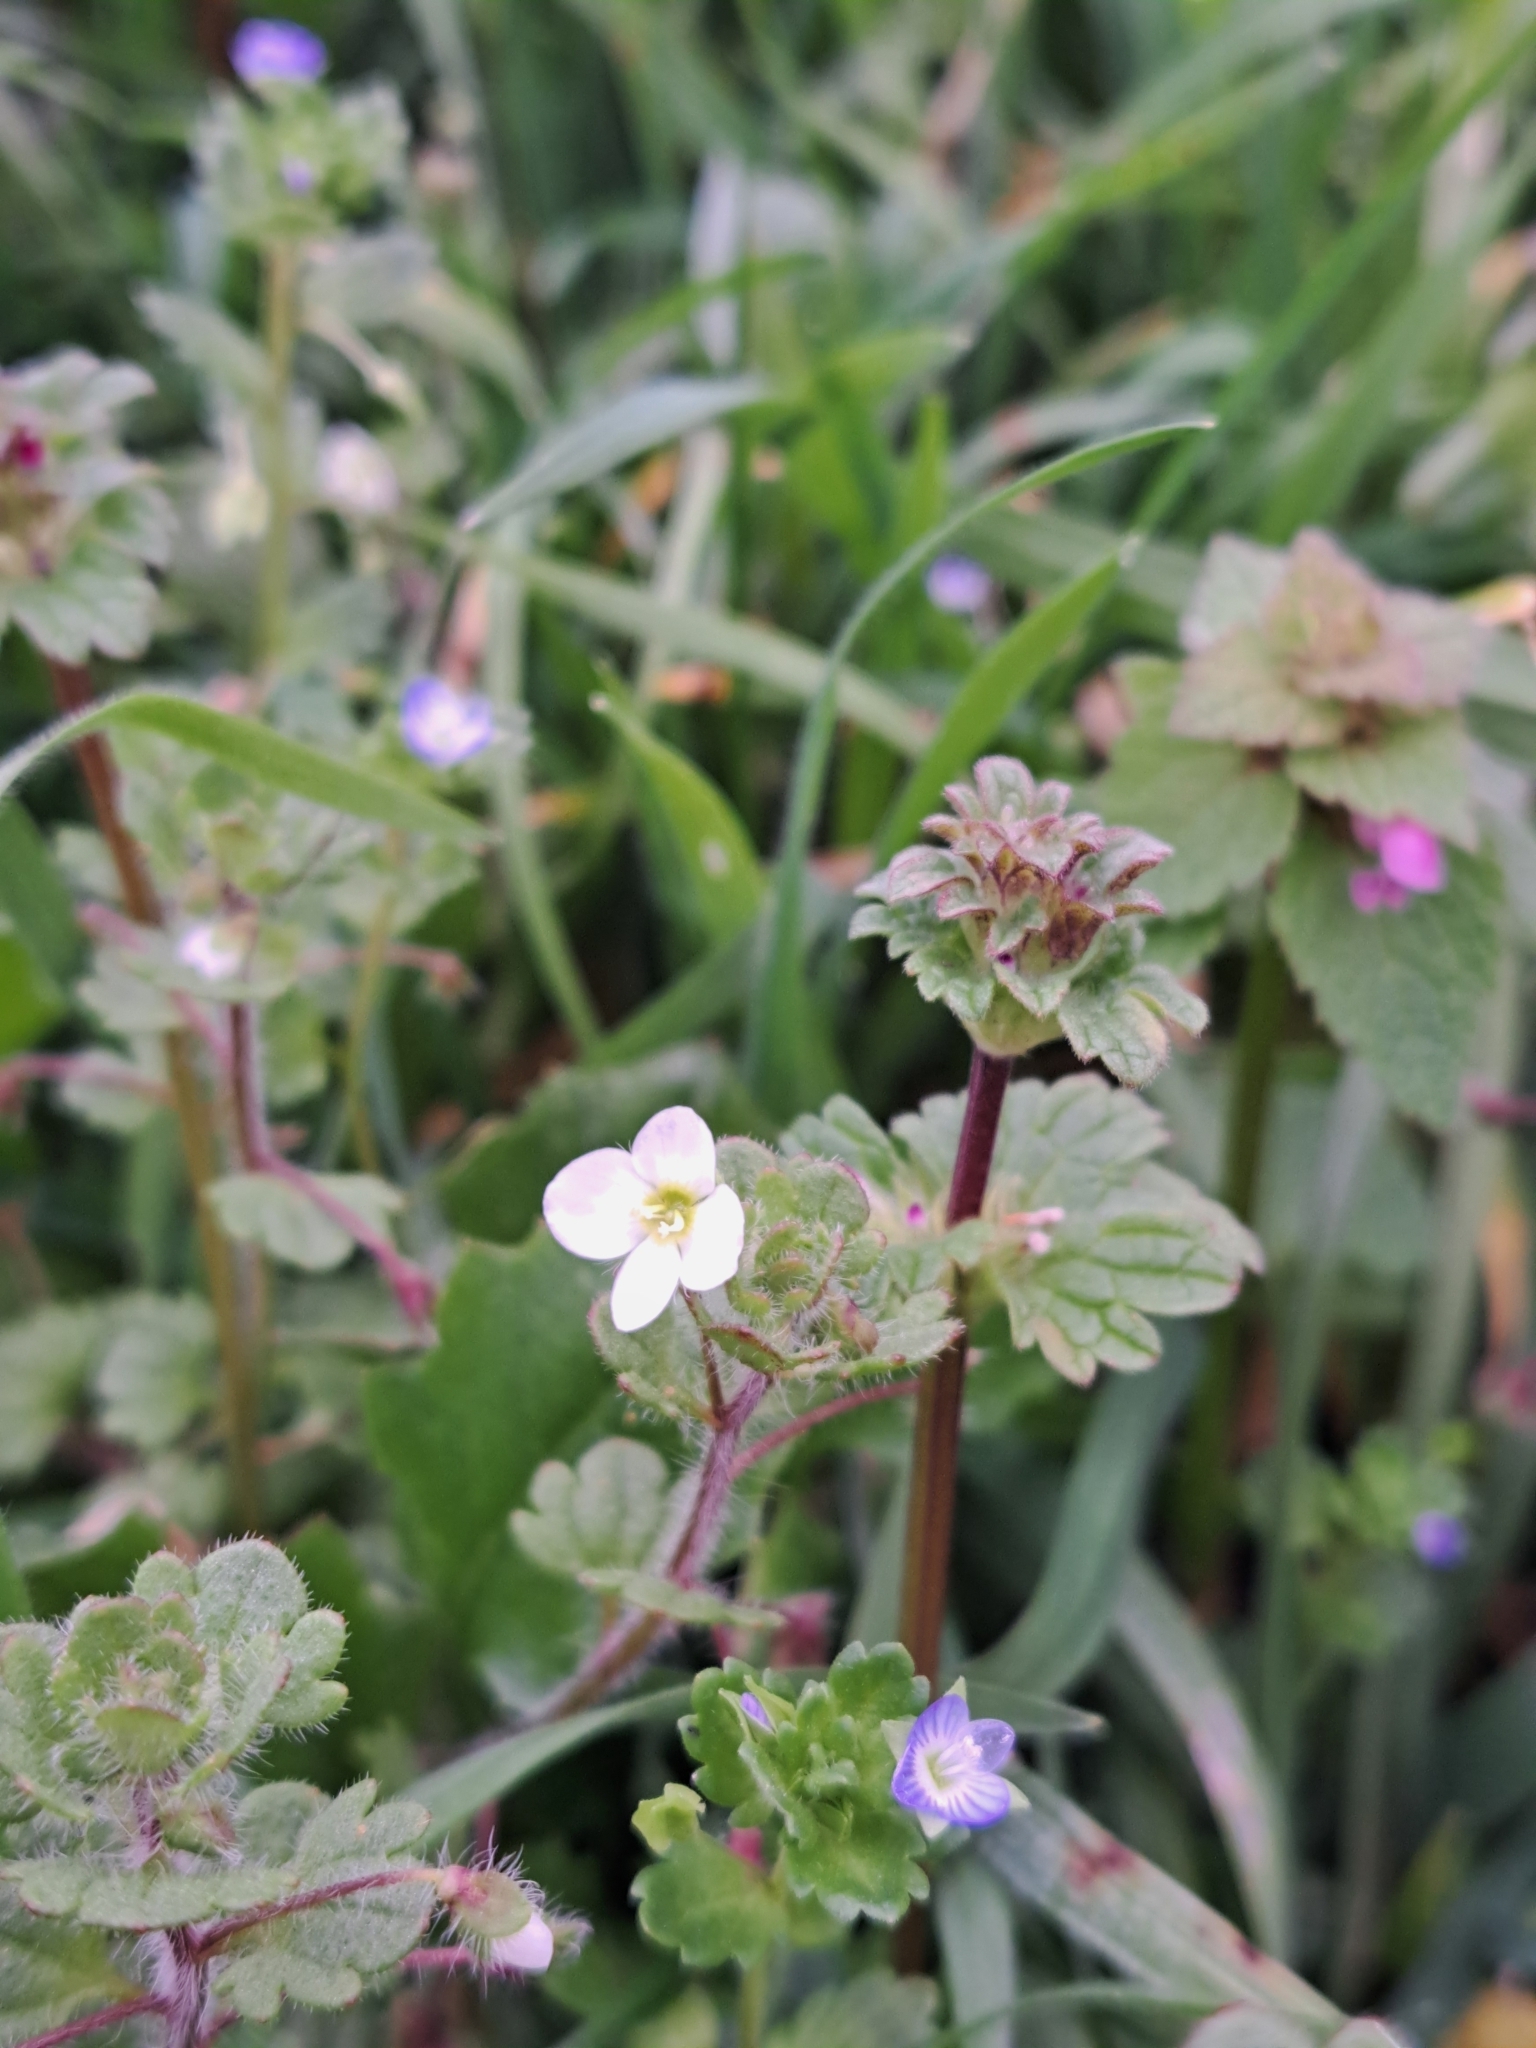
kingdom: Plantae
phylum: Tracheophyta
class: Magnoliopsida
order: Lamiales
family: Plantaginaceae
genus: Veronica
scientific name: Veronica cymbalaria
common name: Pale speedwell
